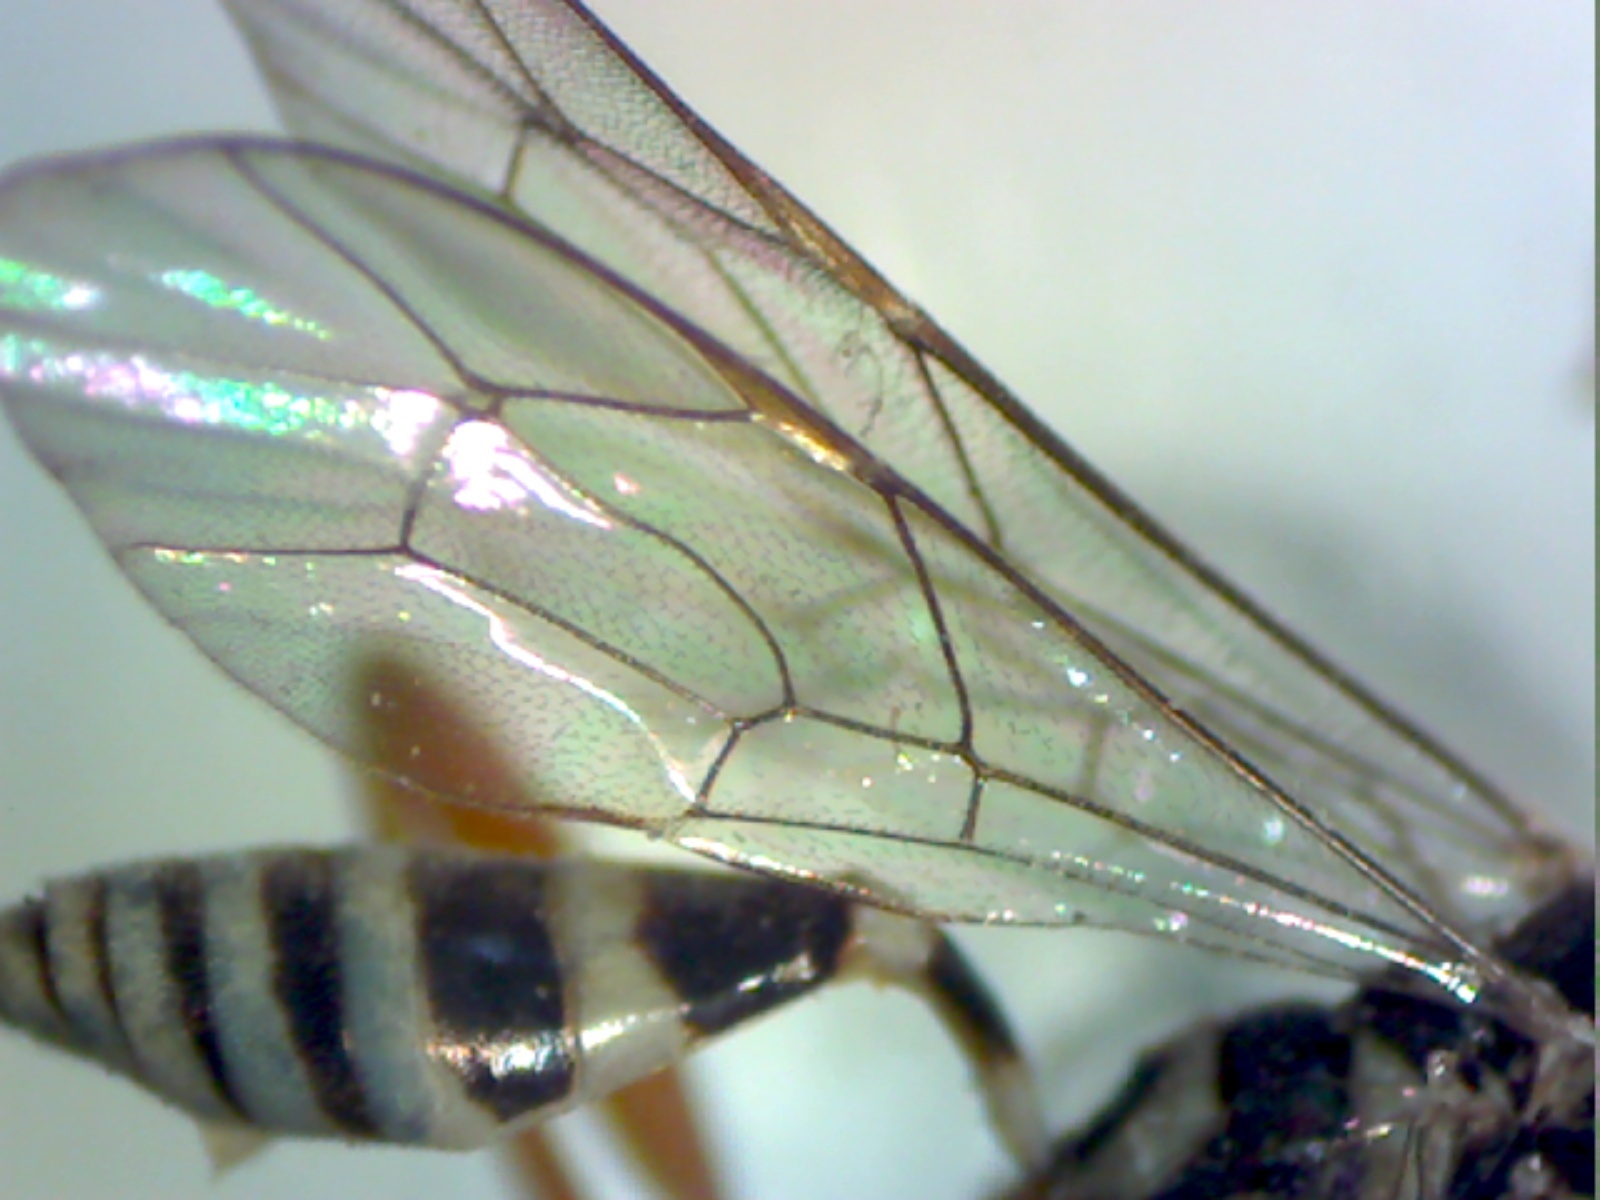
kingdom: Animalia
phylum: Arthropoda
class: Insecta
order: Hymenoptera
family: Ichneumonidae
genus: Messatoporus
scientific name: Messatoporus discoidalis
